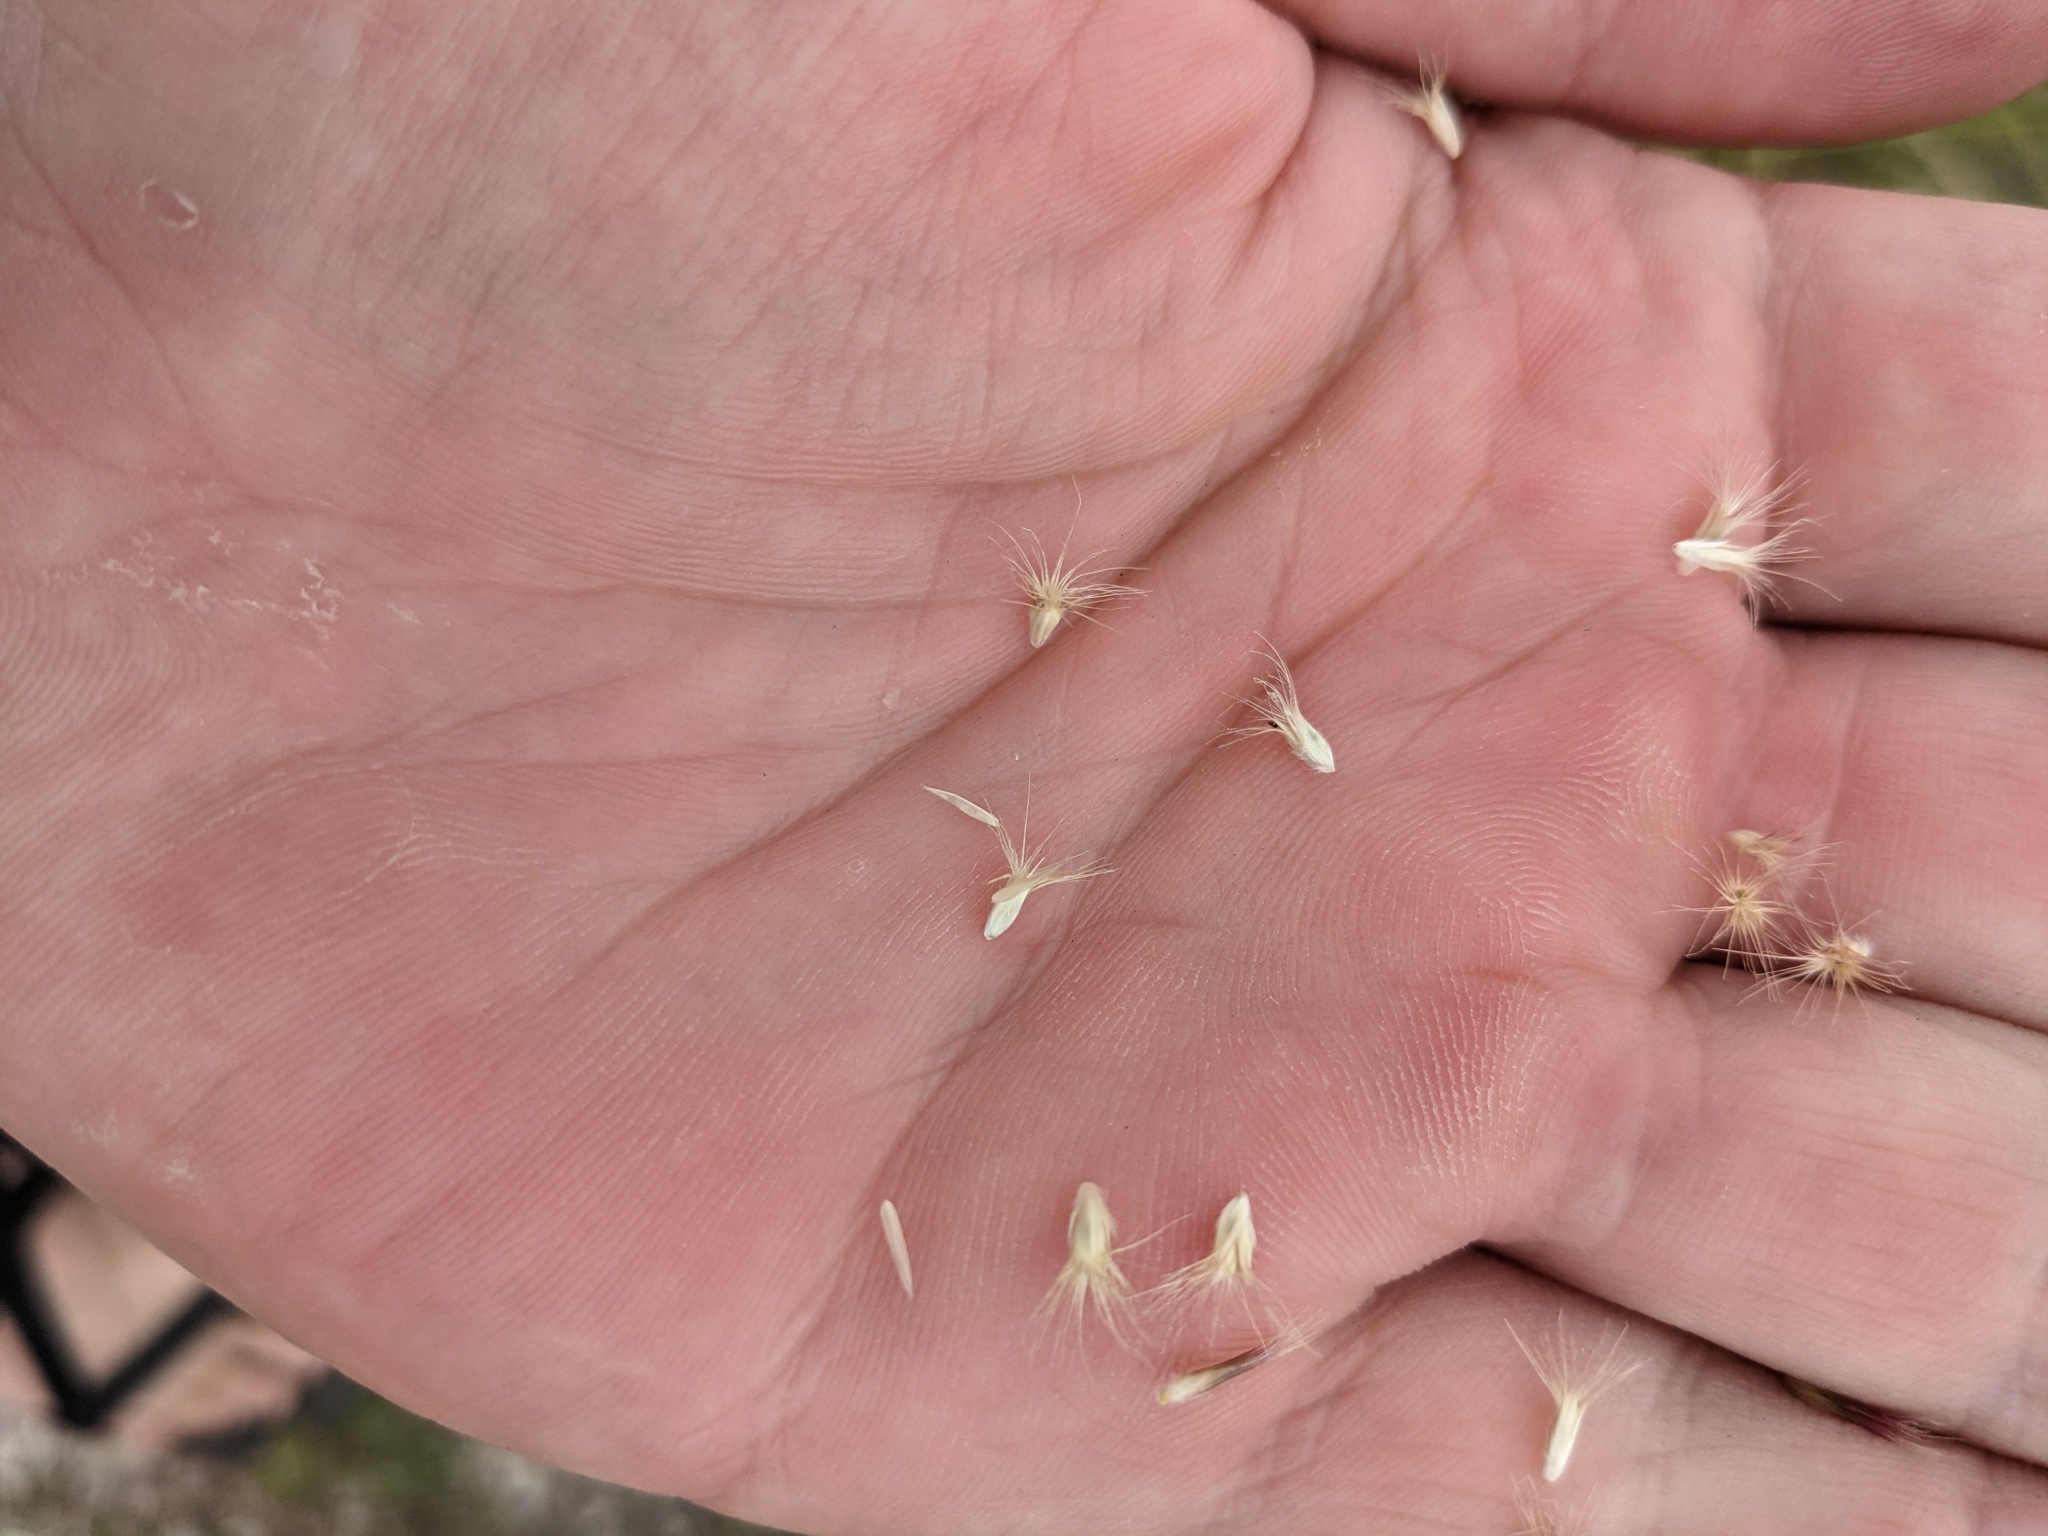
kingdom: Plantae
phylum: Tracheophyta
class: Liliopsida
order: Poales
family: Poaceae
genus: Pappophorum
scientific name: Pappophorum bicolor
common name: Pink pappus grass
